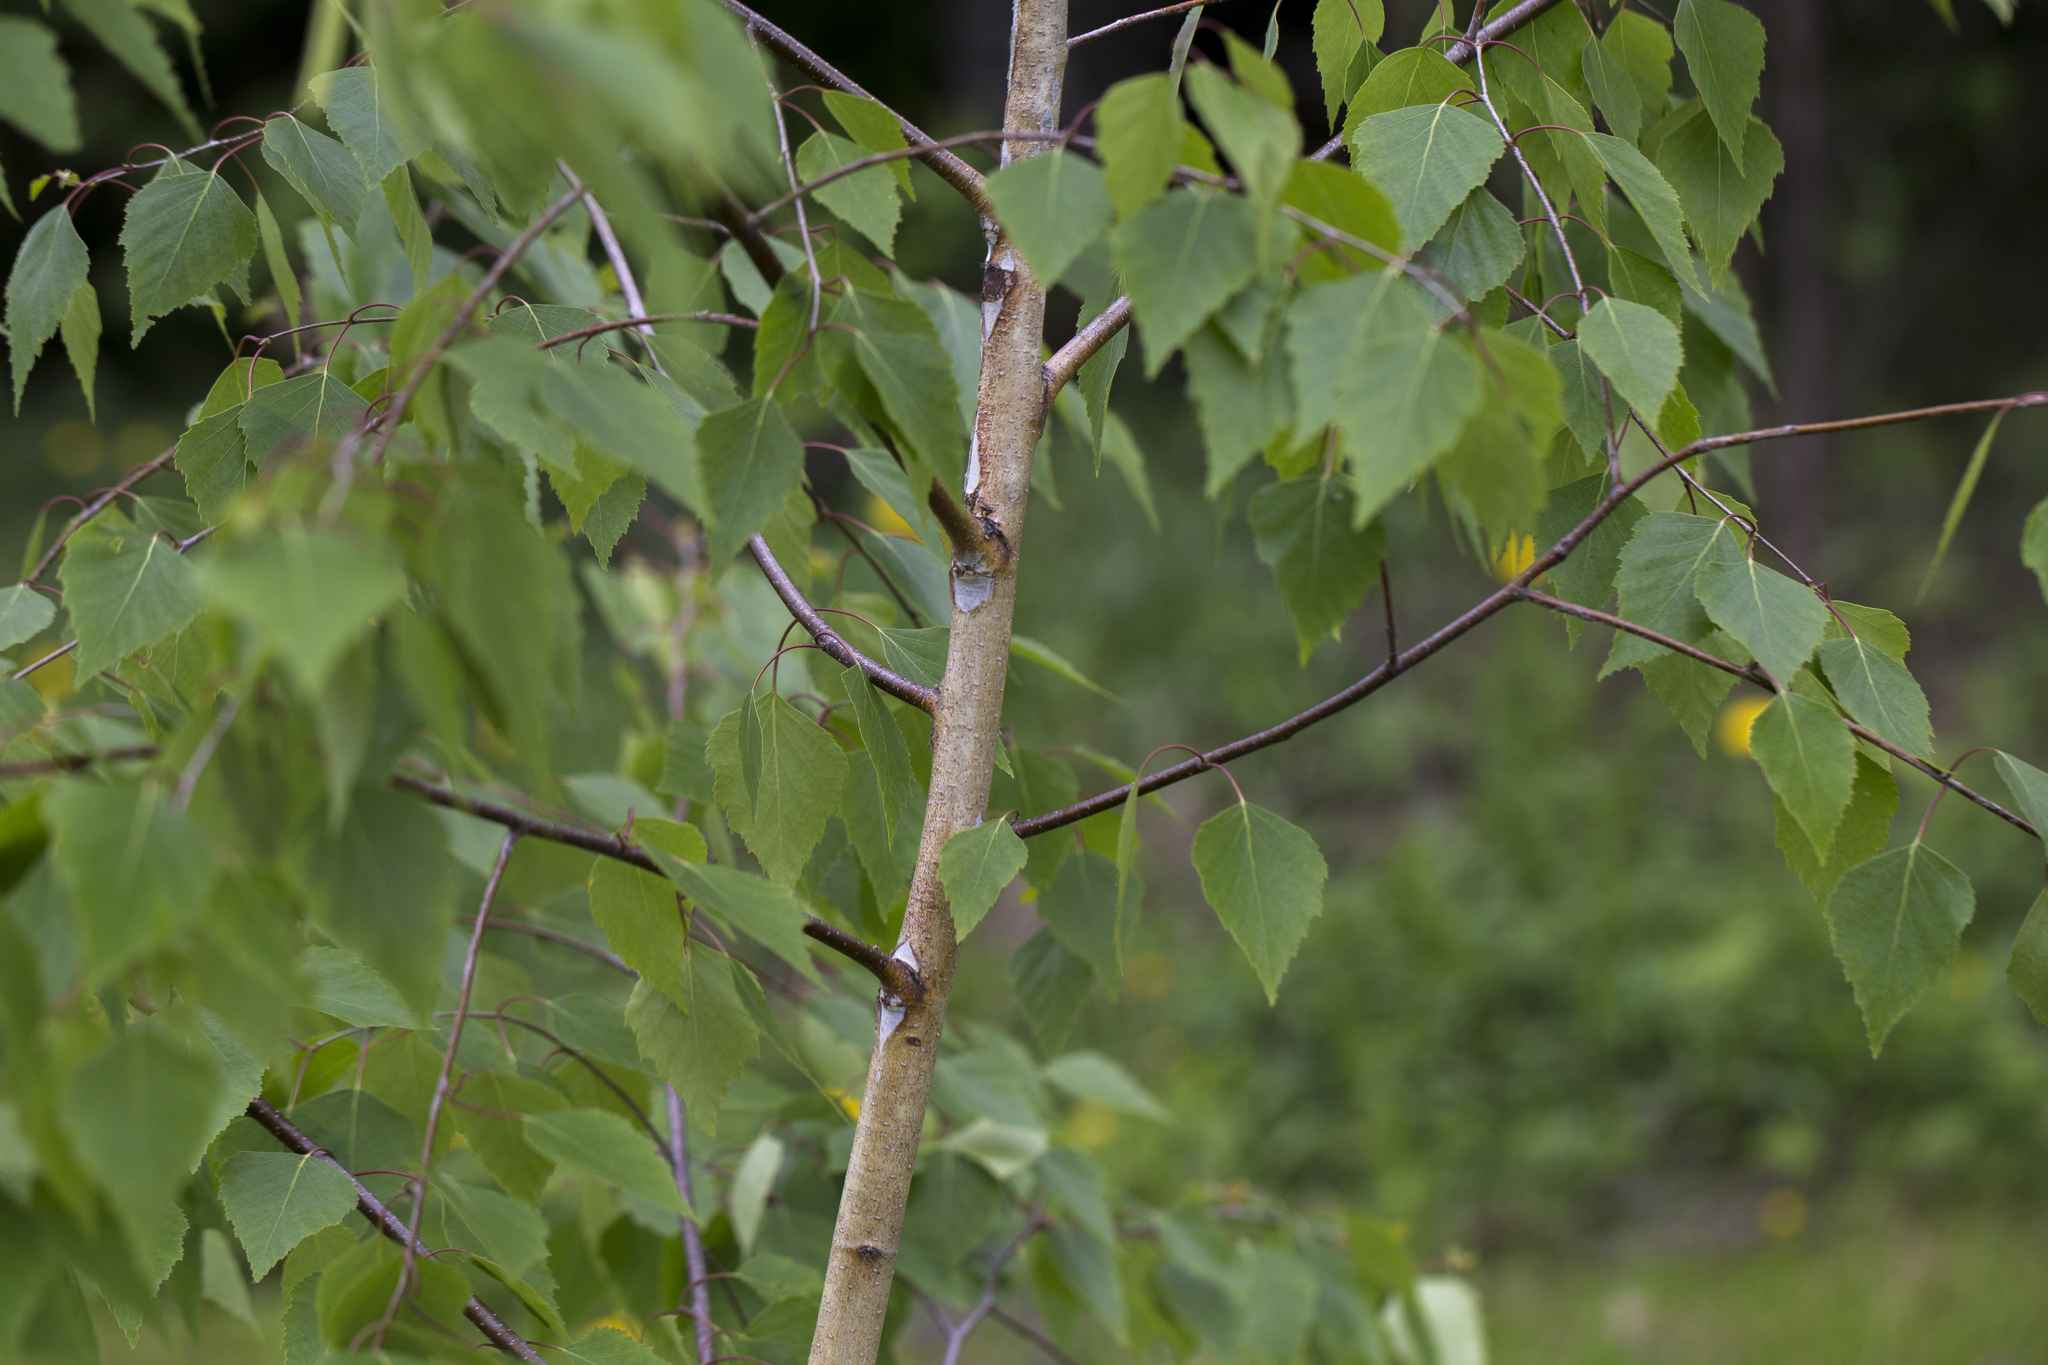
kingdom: Plantae
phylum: Tracheophyta
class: Magnoliopsida
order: Fagales
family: Betulaceae
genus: Betula
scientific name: Betula pendula
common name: Silver birch
